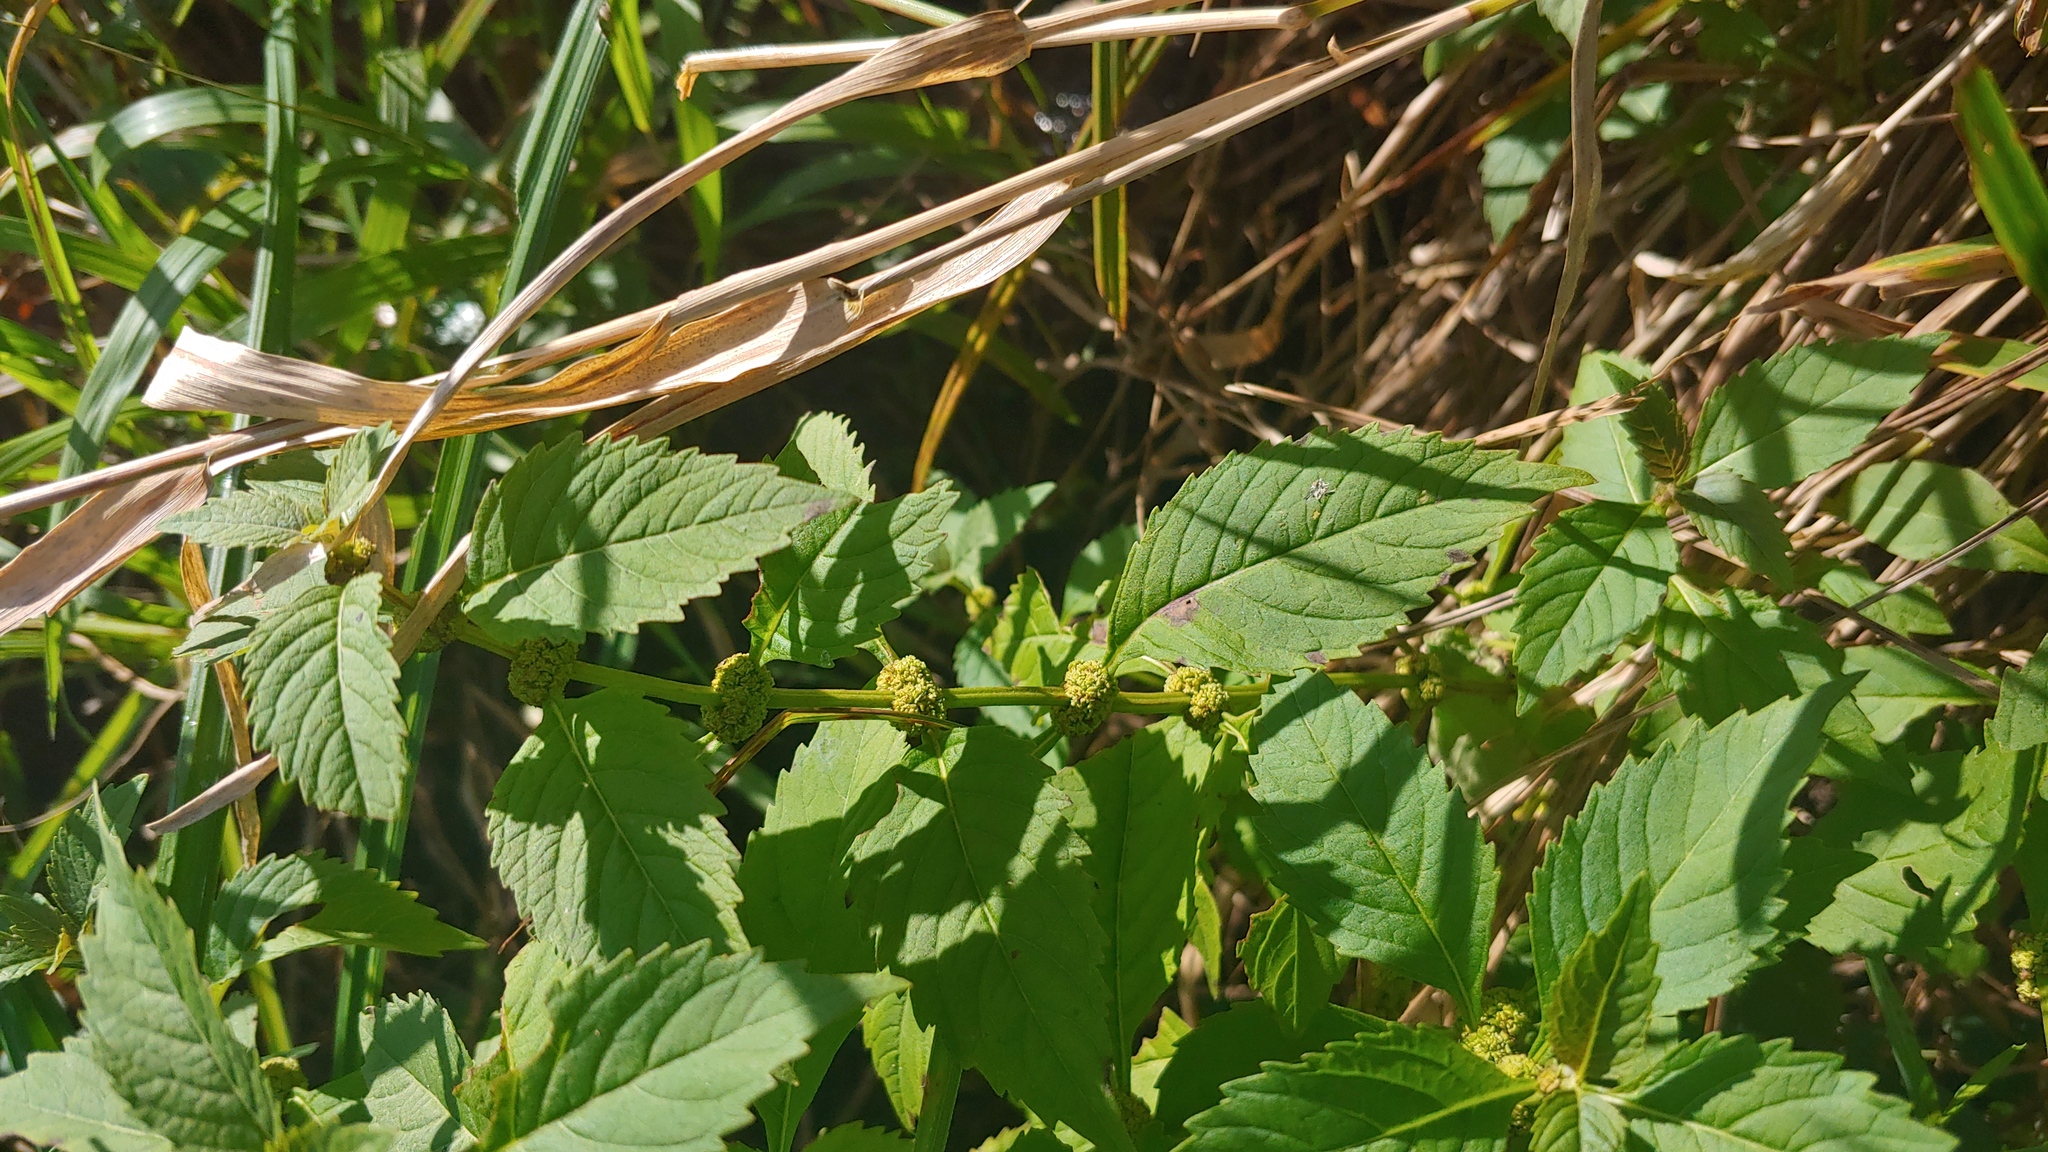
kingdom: Plantae
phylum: Tracheophyta
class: Magnoliopsida
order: Lamiales
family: Lamiaceae
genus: Lycopus
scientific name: Lycopus virginicus
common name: Bugleweed
